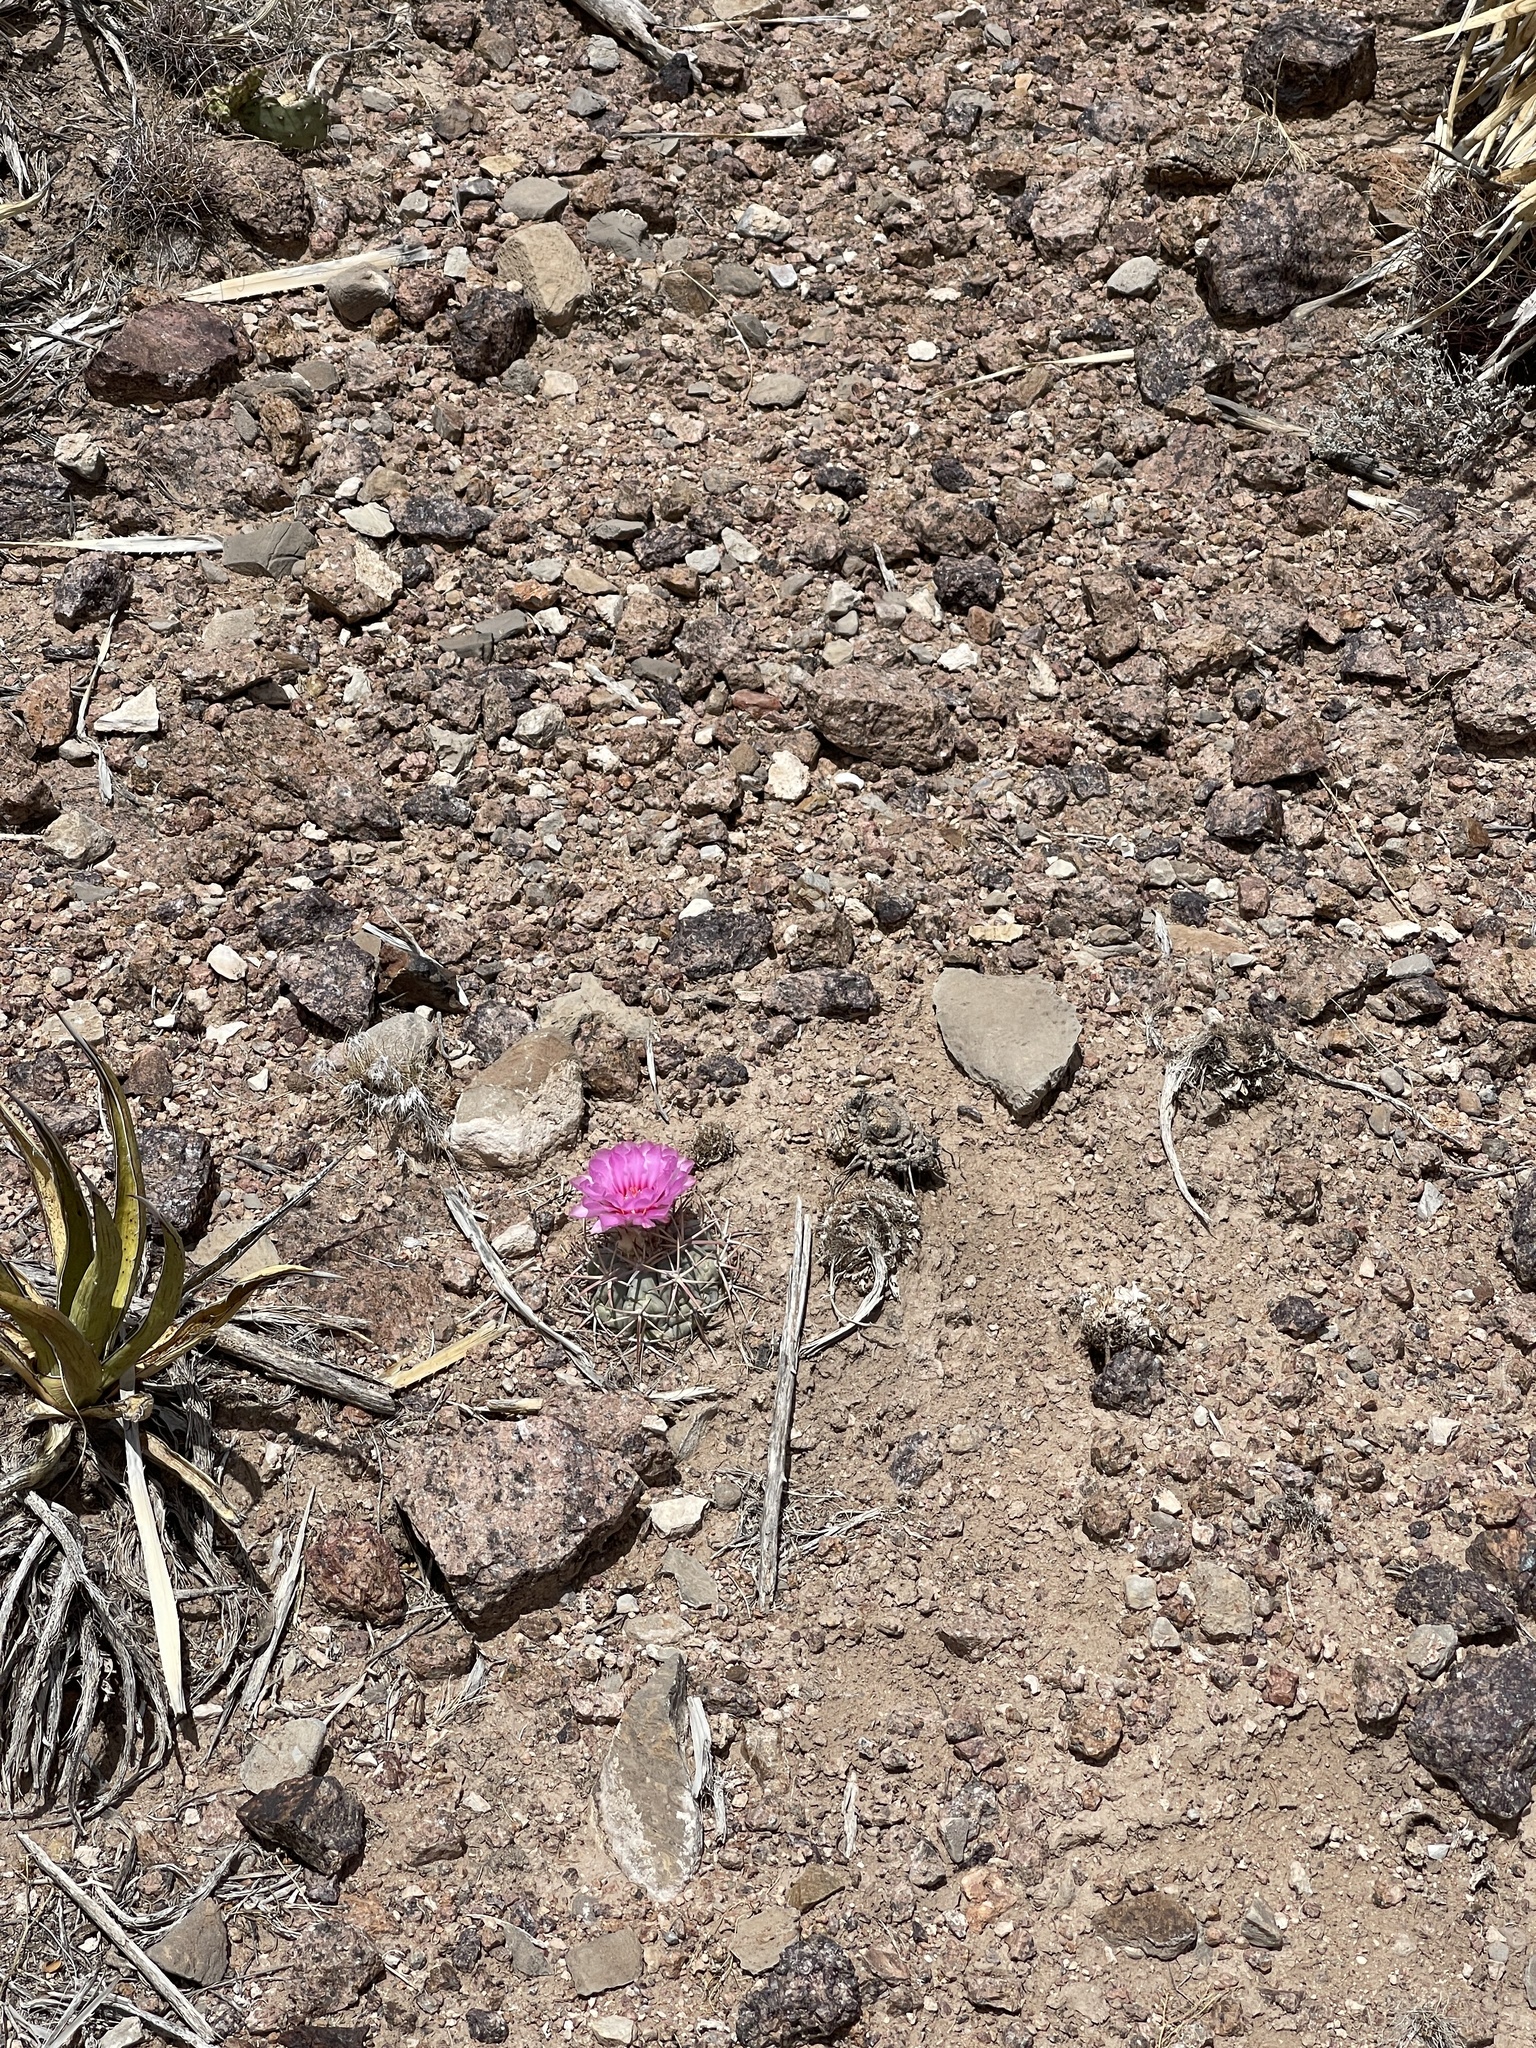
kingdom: Plantae
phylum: Tracheophyta
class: Magnoliopsida
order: Caryophyllales
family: Cactaceae
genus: Echinocactus
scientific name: Echinocactus horizonthalonius
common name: Devilshead
